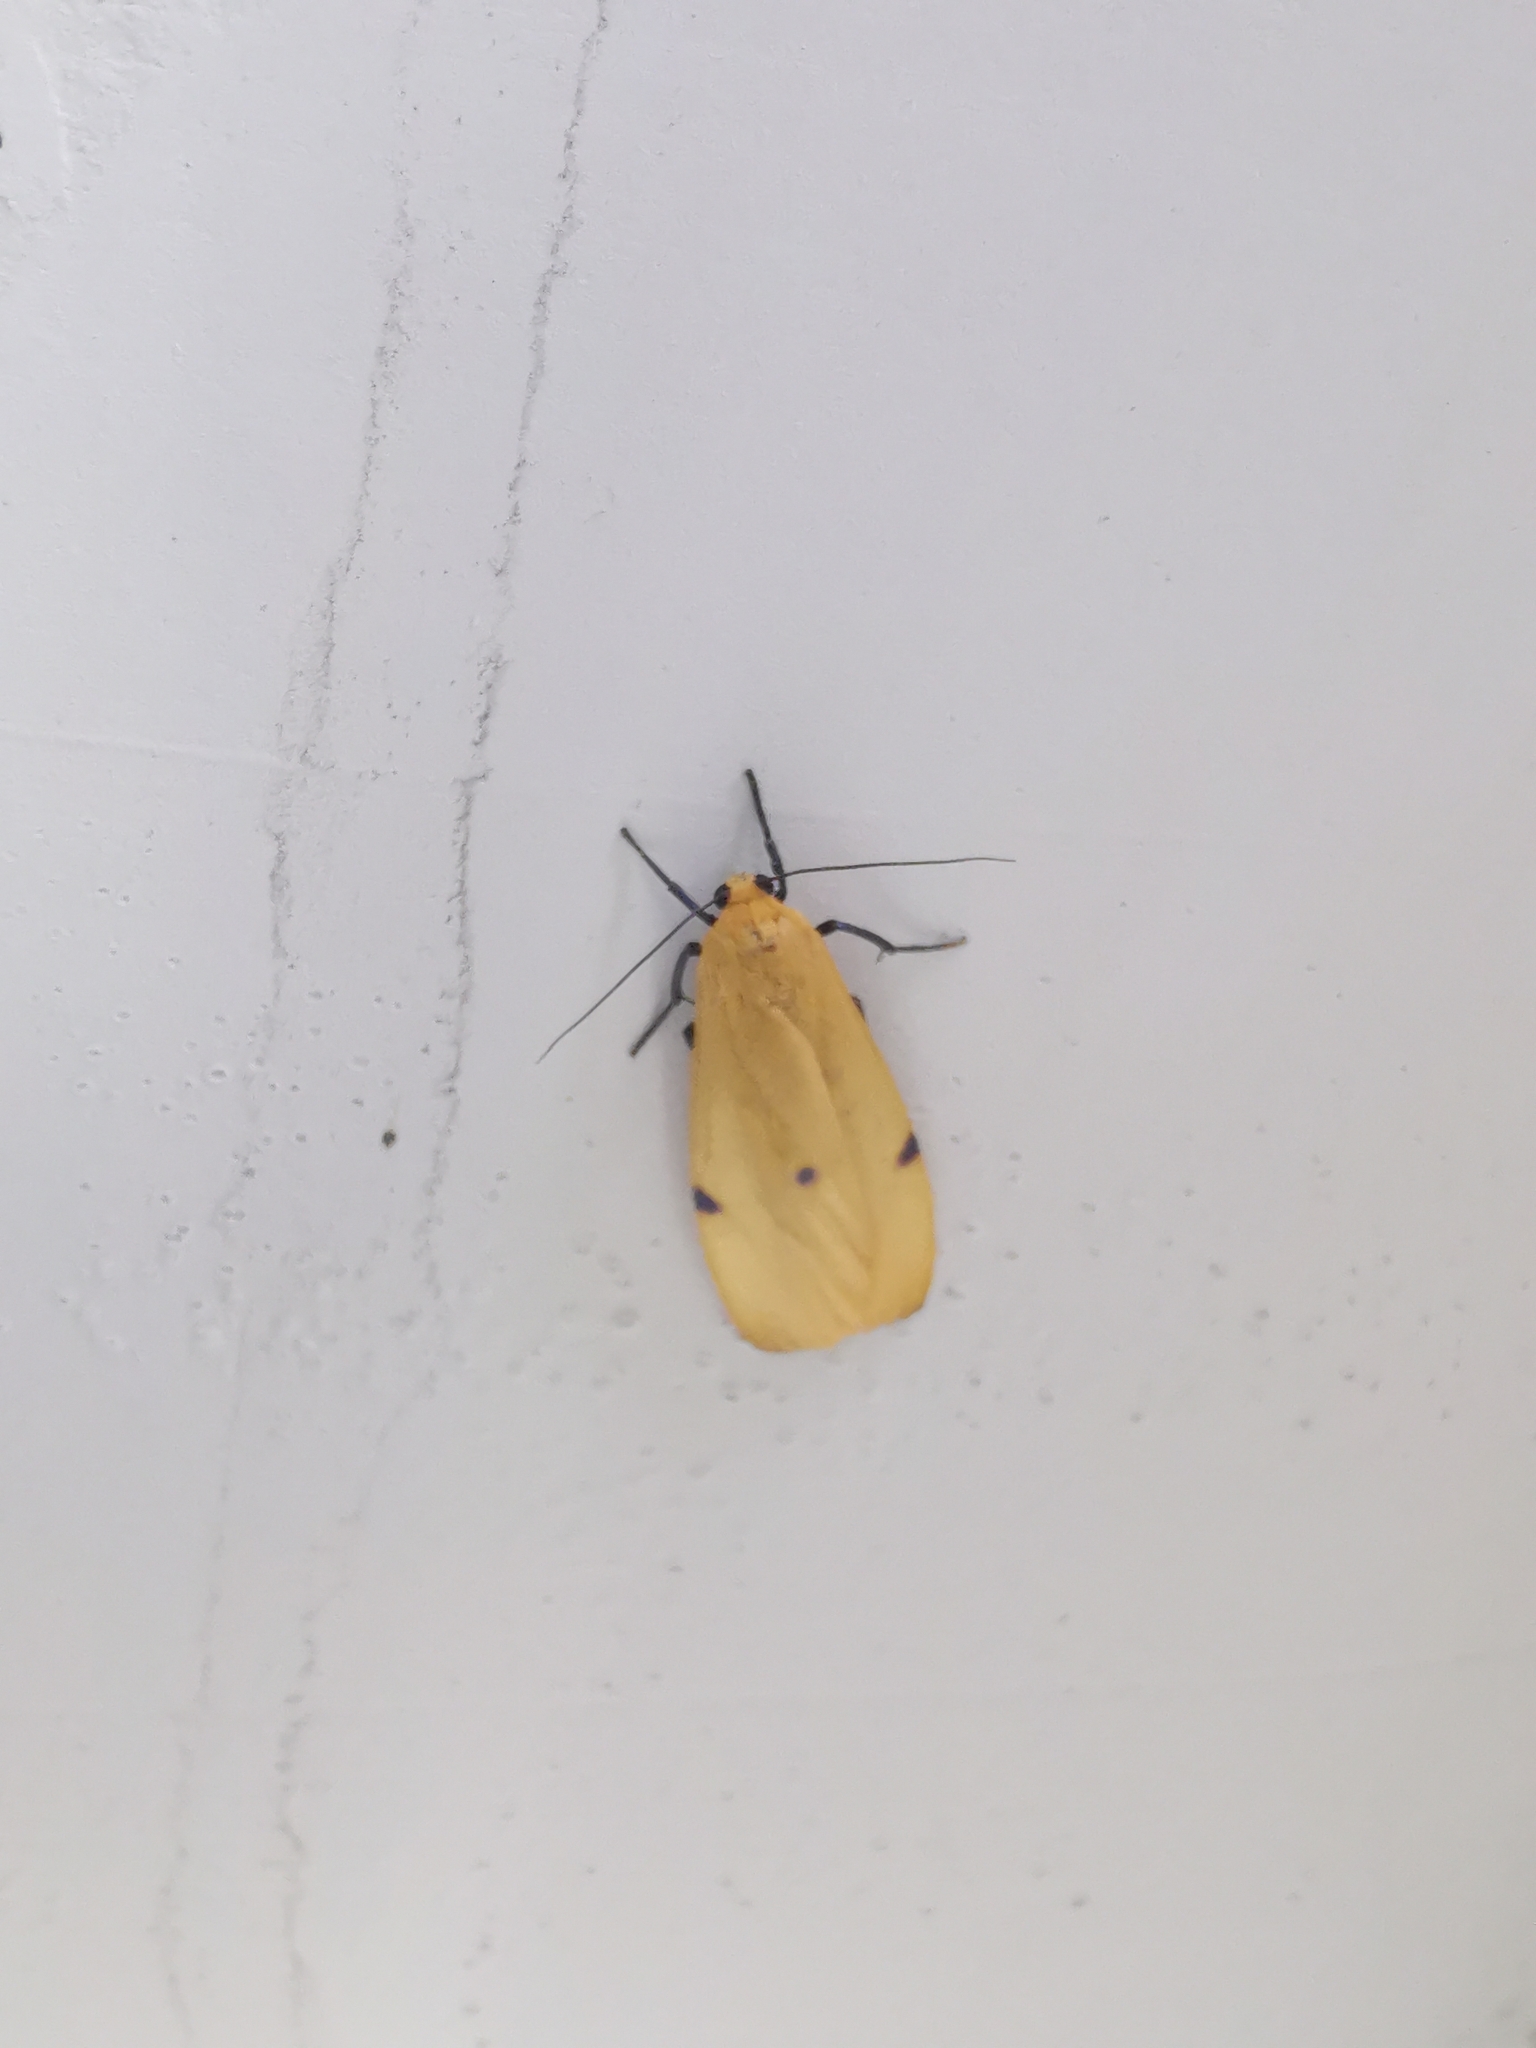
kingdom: Animalia
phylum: Arthropoda
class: Insecta
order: Lepidoptera
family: Erebidae
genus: Lithosia
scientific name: Lithosia quadra
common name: Four-spotted footman
